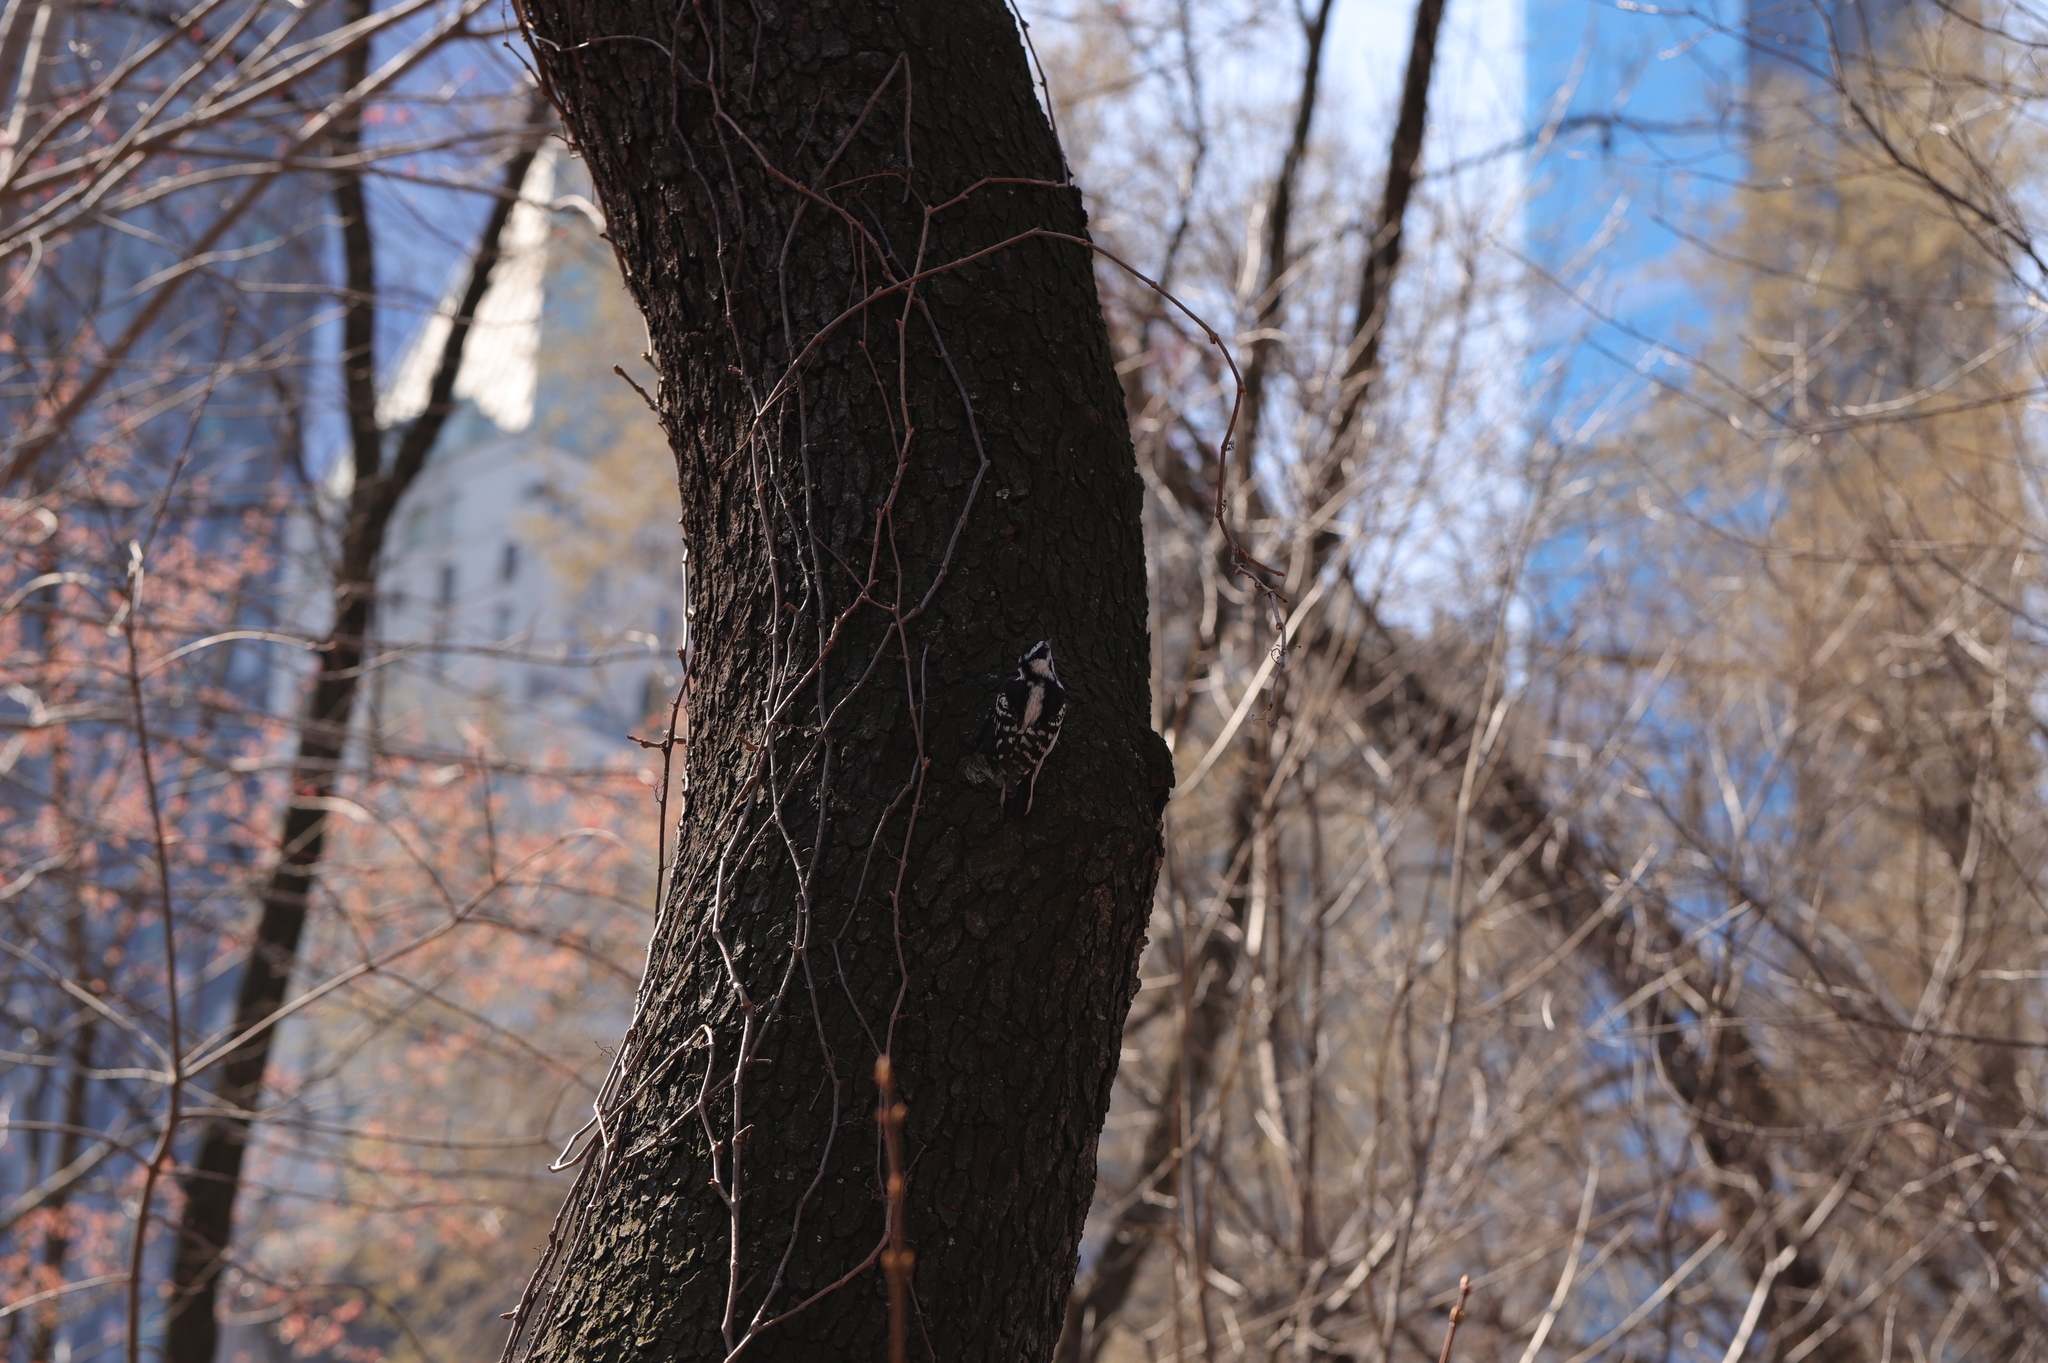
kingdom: Animalia
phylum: Chordata
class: Aves
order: Piciformes
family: Picidae
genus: Dryobates
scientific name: Dryobates pubescens
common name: Downy woodpecker
